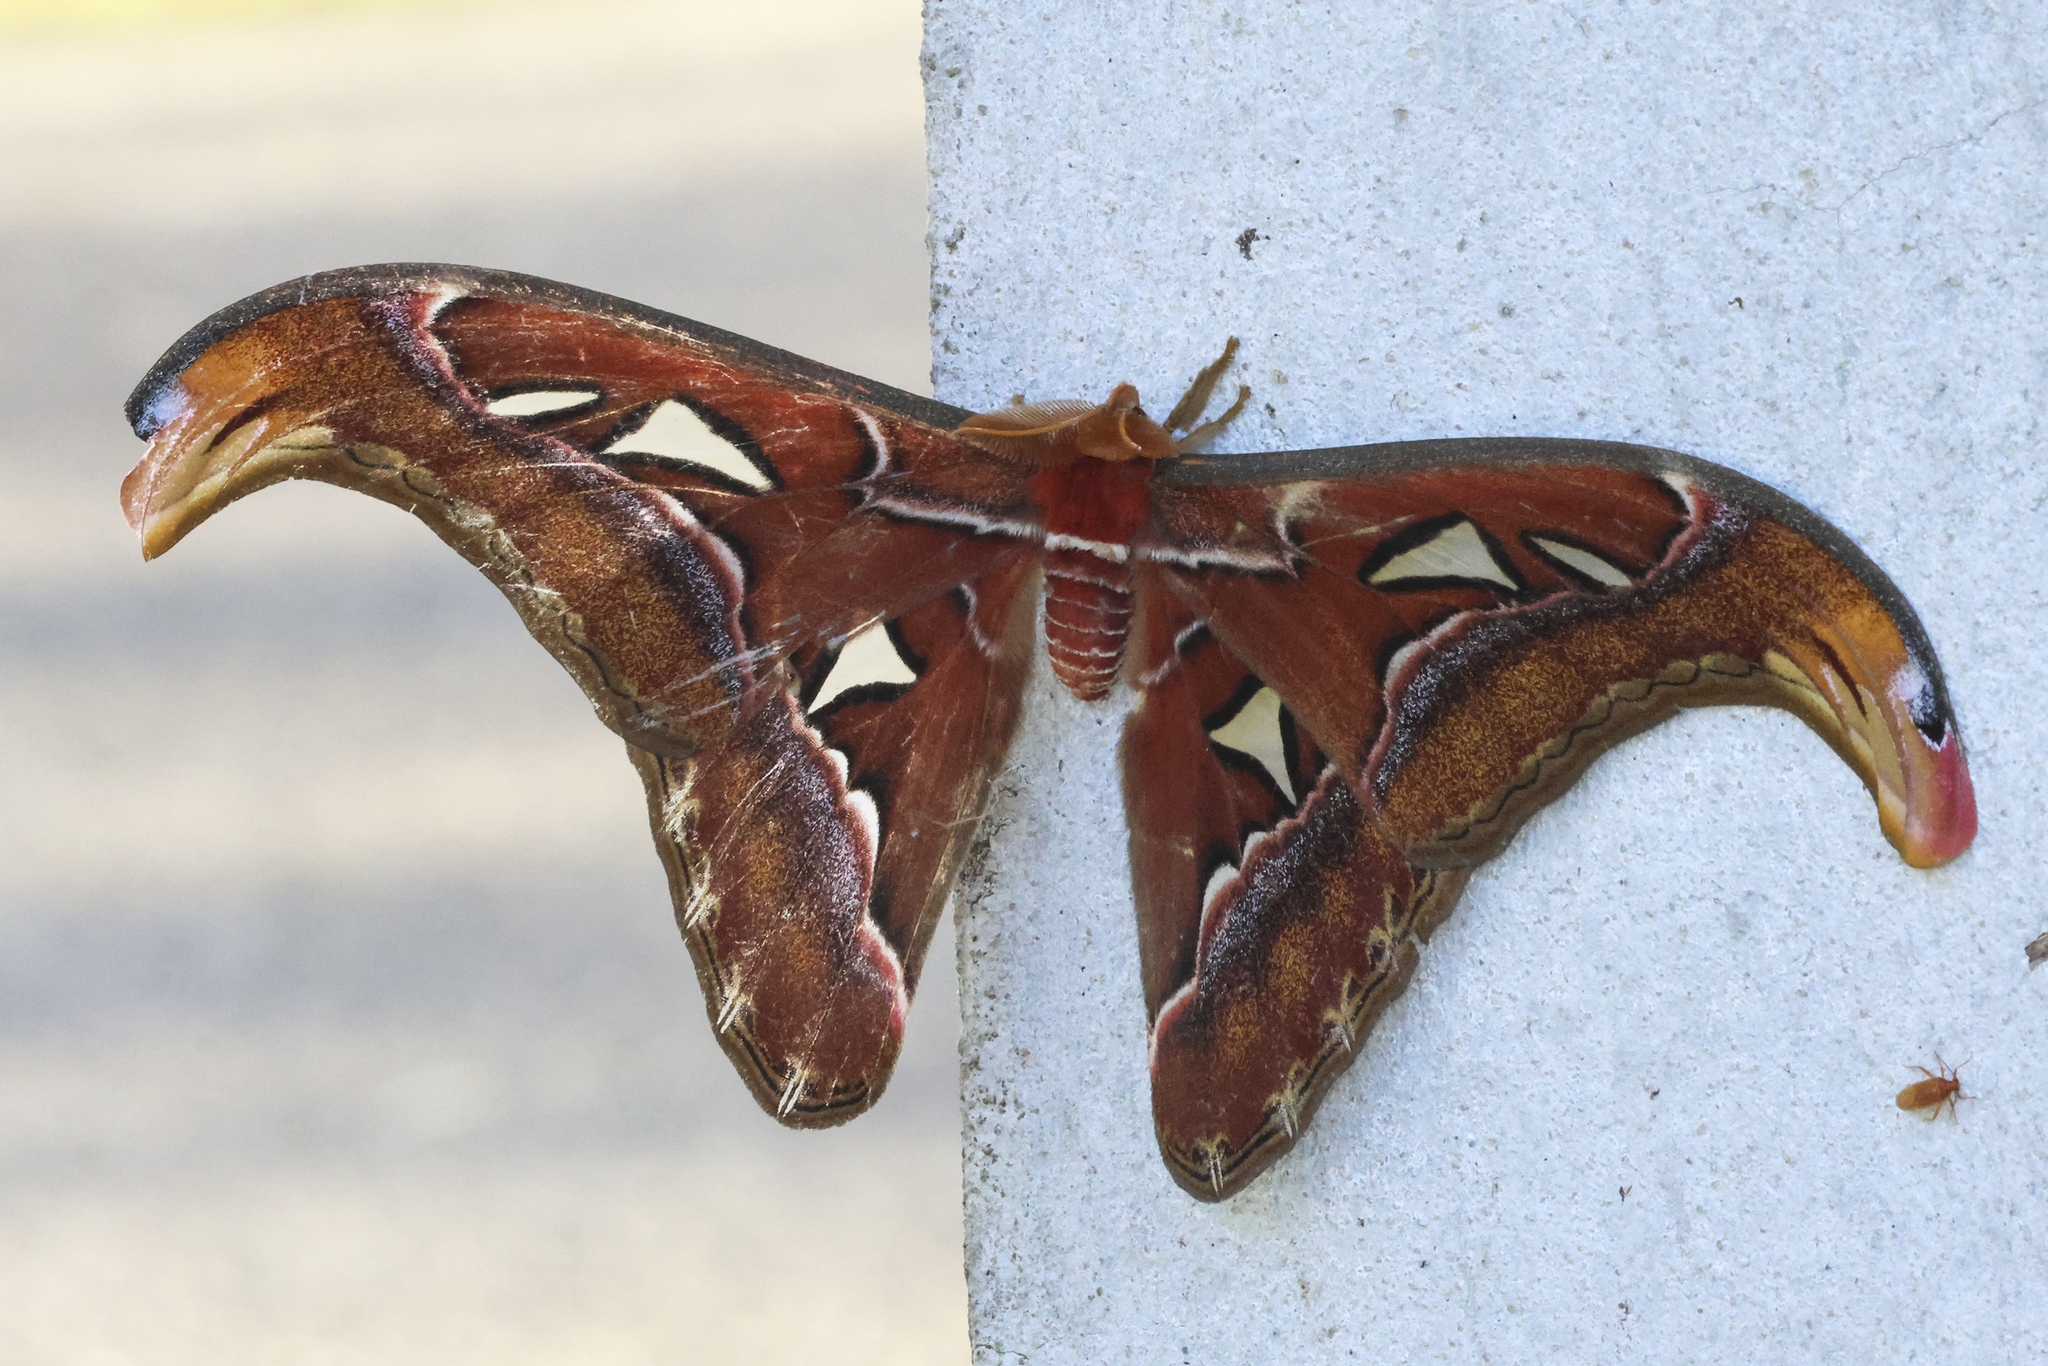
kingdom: Animalia
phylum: Arthropoda
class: Insecta
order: Lepidoptera
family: Saturniidae
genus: Attacus
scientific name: Attacus atlas
